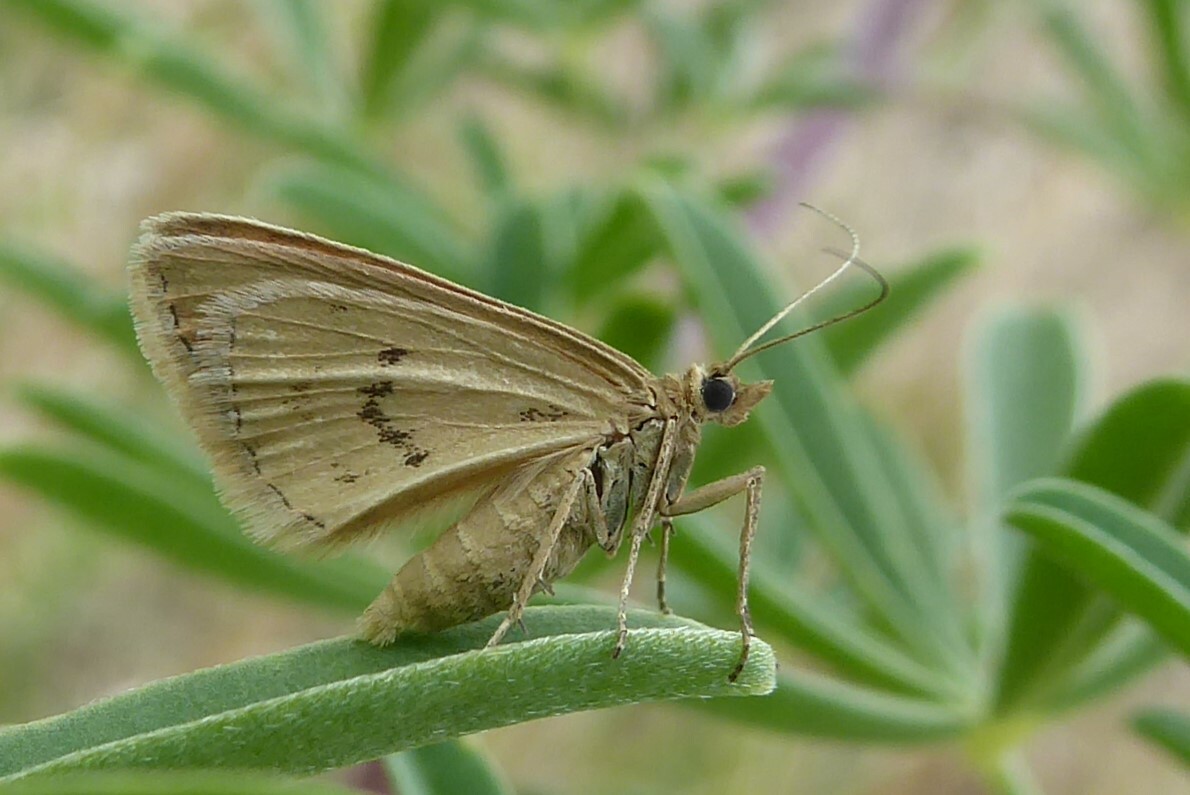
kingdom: Animalia
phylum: Arthropoda
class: Insecta
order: Lepidoptera
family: Geometridae
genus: Asaphodes
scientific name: Asaphodes abrogata
